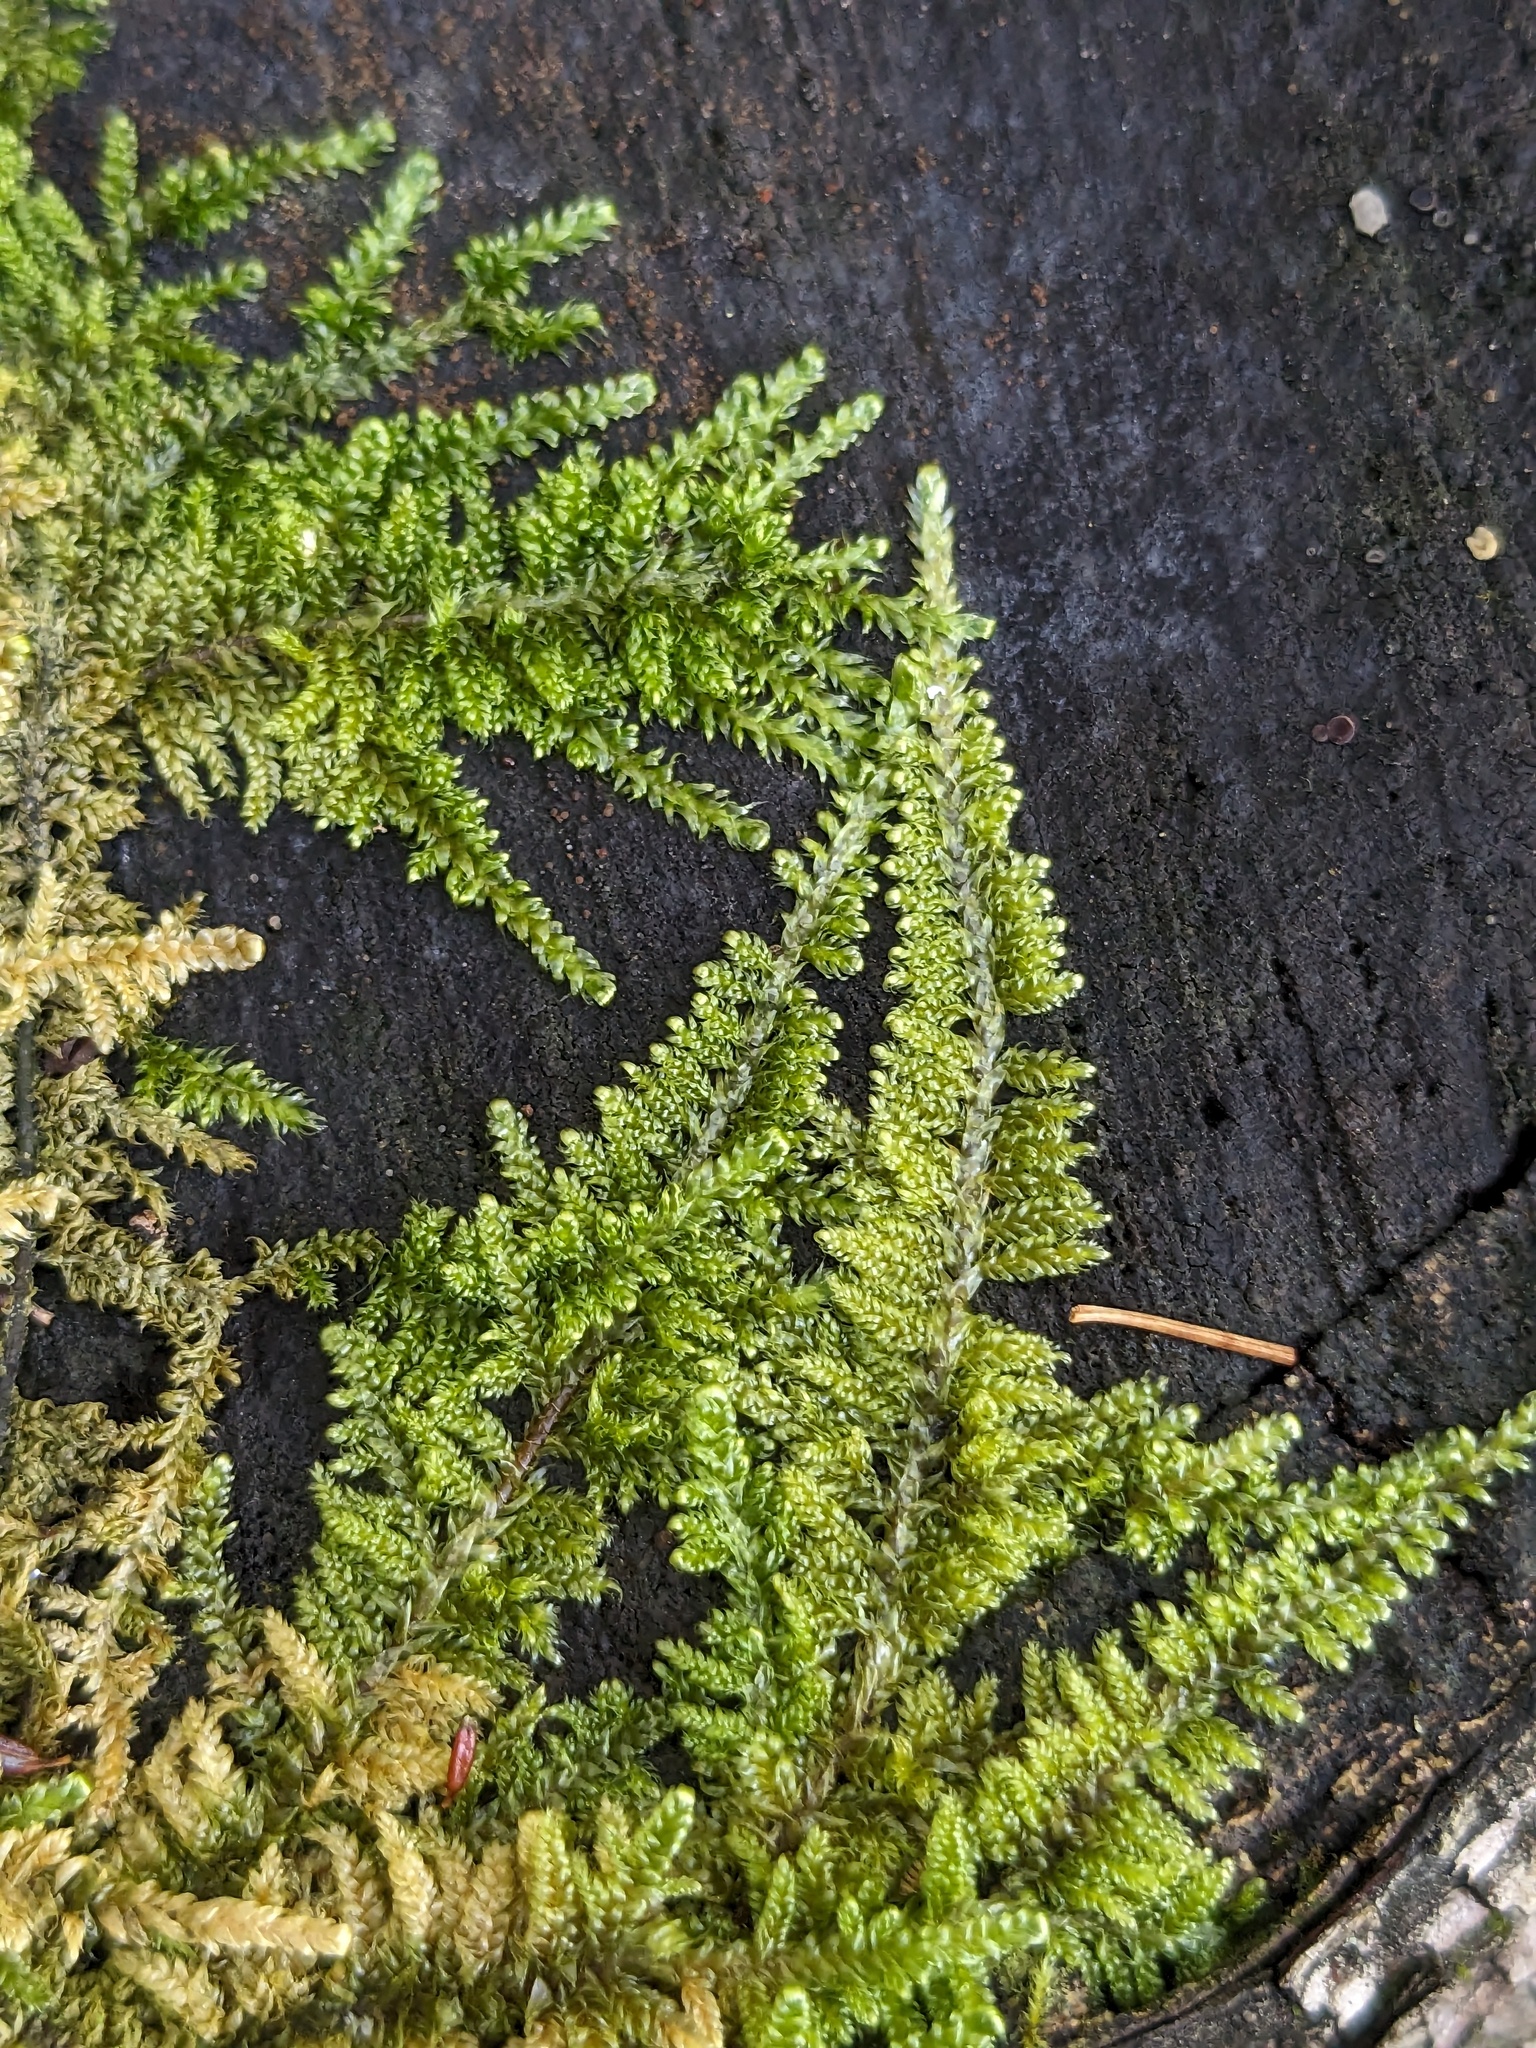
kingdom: Plantae
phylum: Bryophyta
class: Bryopsida
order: Hypnales
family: Callicladiaceae
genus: Callicladium
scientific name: Callicladium imponens
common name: Brocade moss
